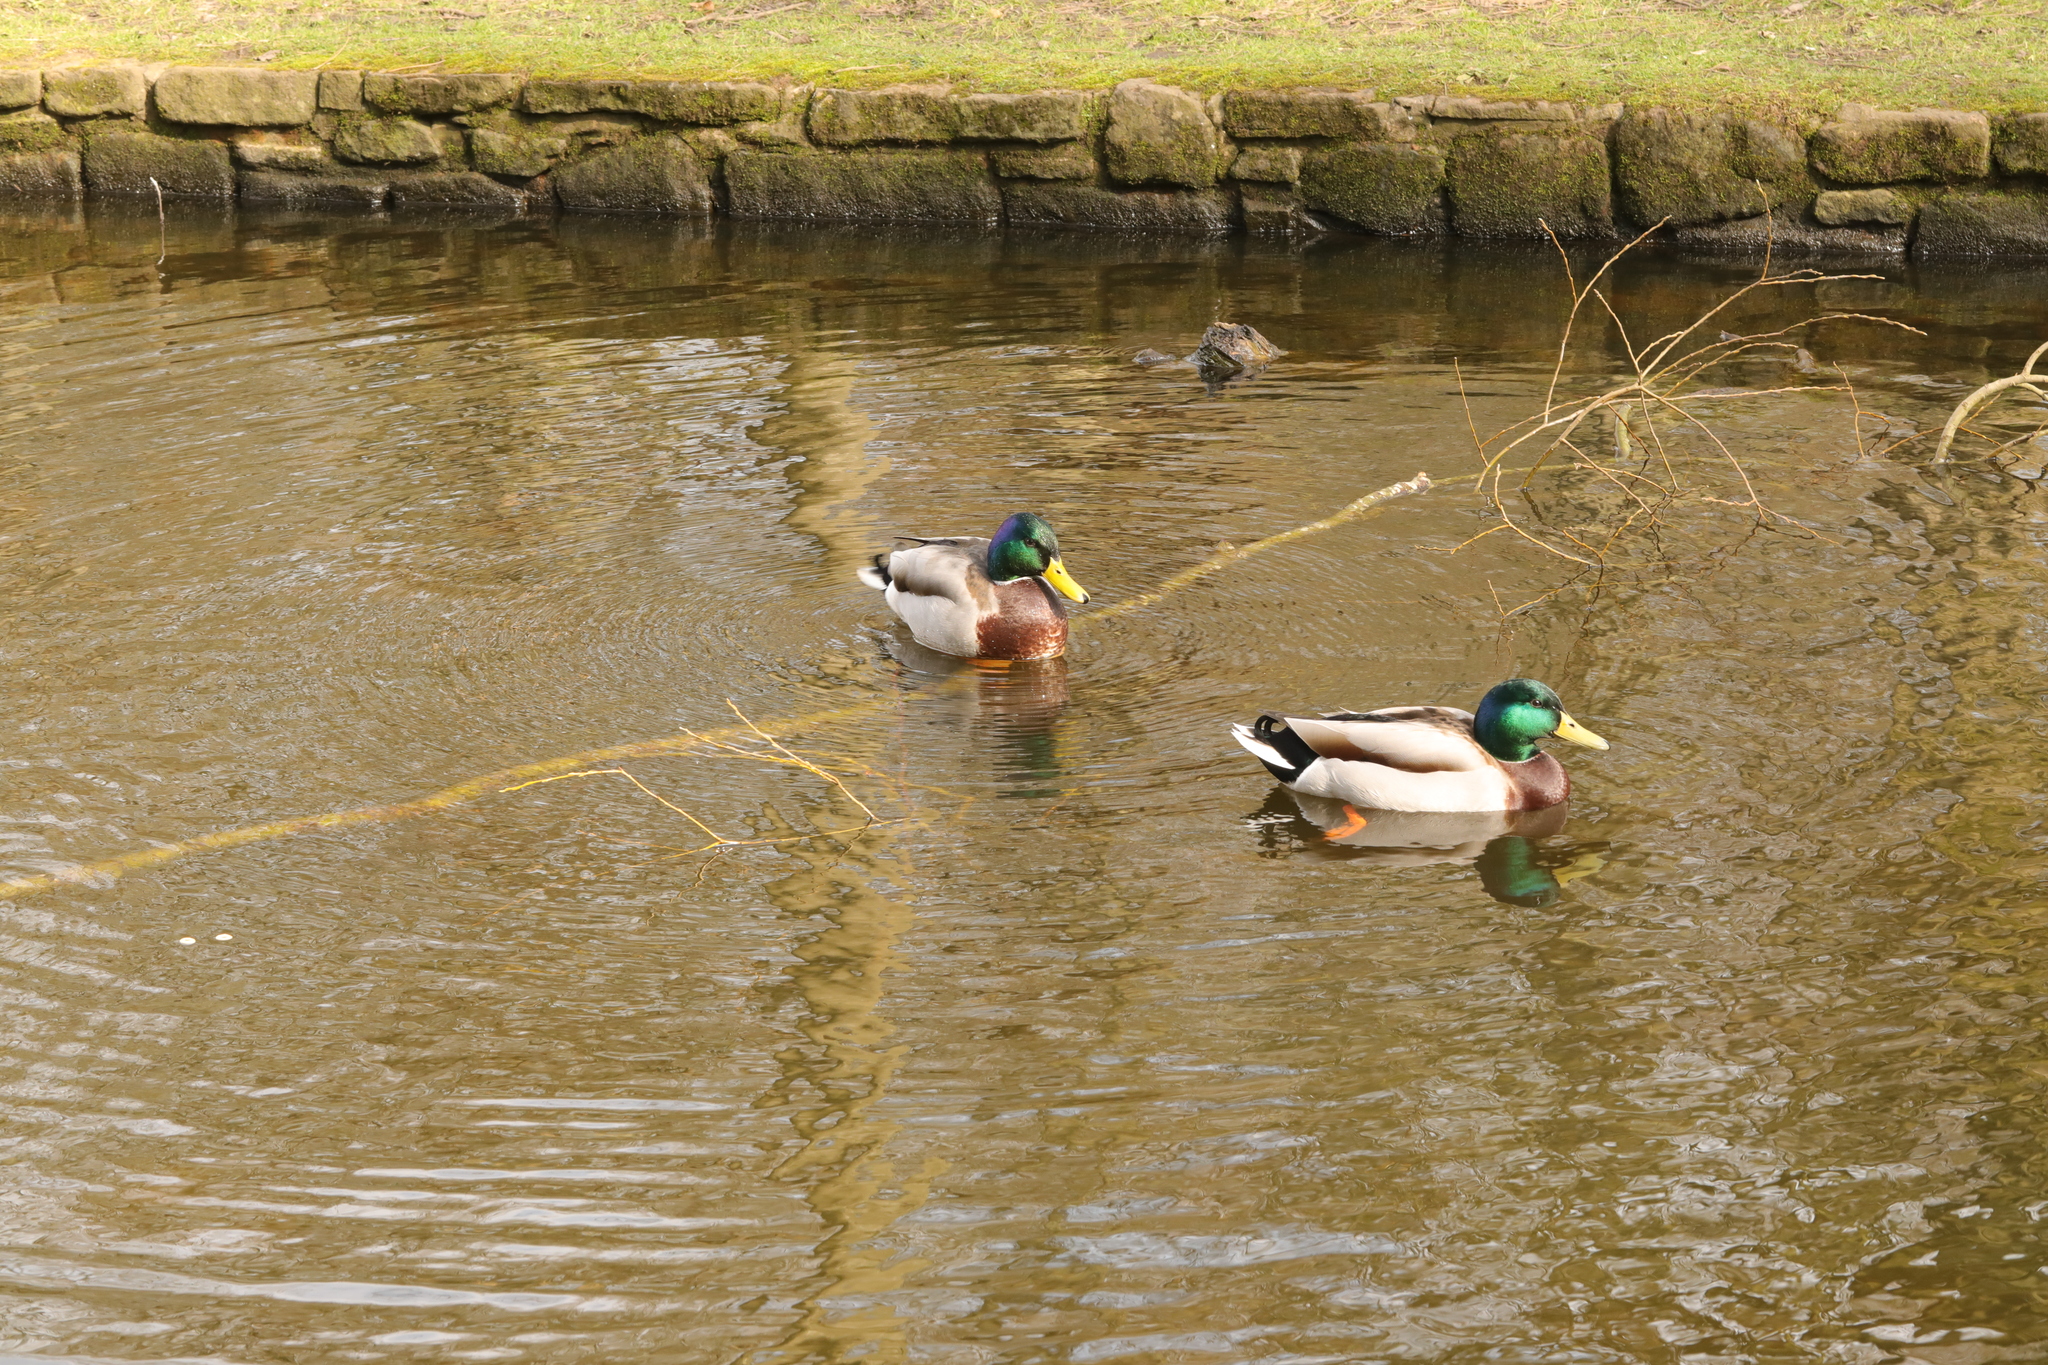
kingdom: Animalia
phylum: Chordata
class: Aves
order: Anseriformes
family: Anatidae
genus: Anas
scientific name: Anas platyrhynchos
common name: Mallard
